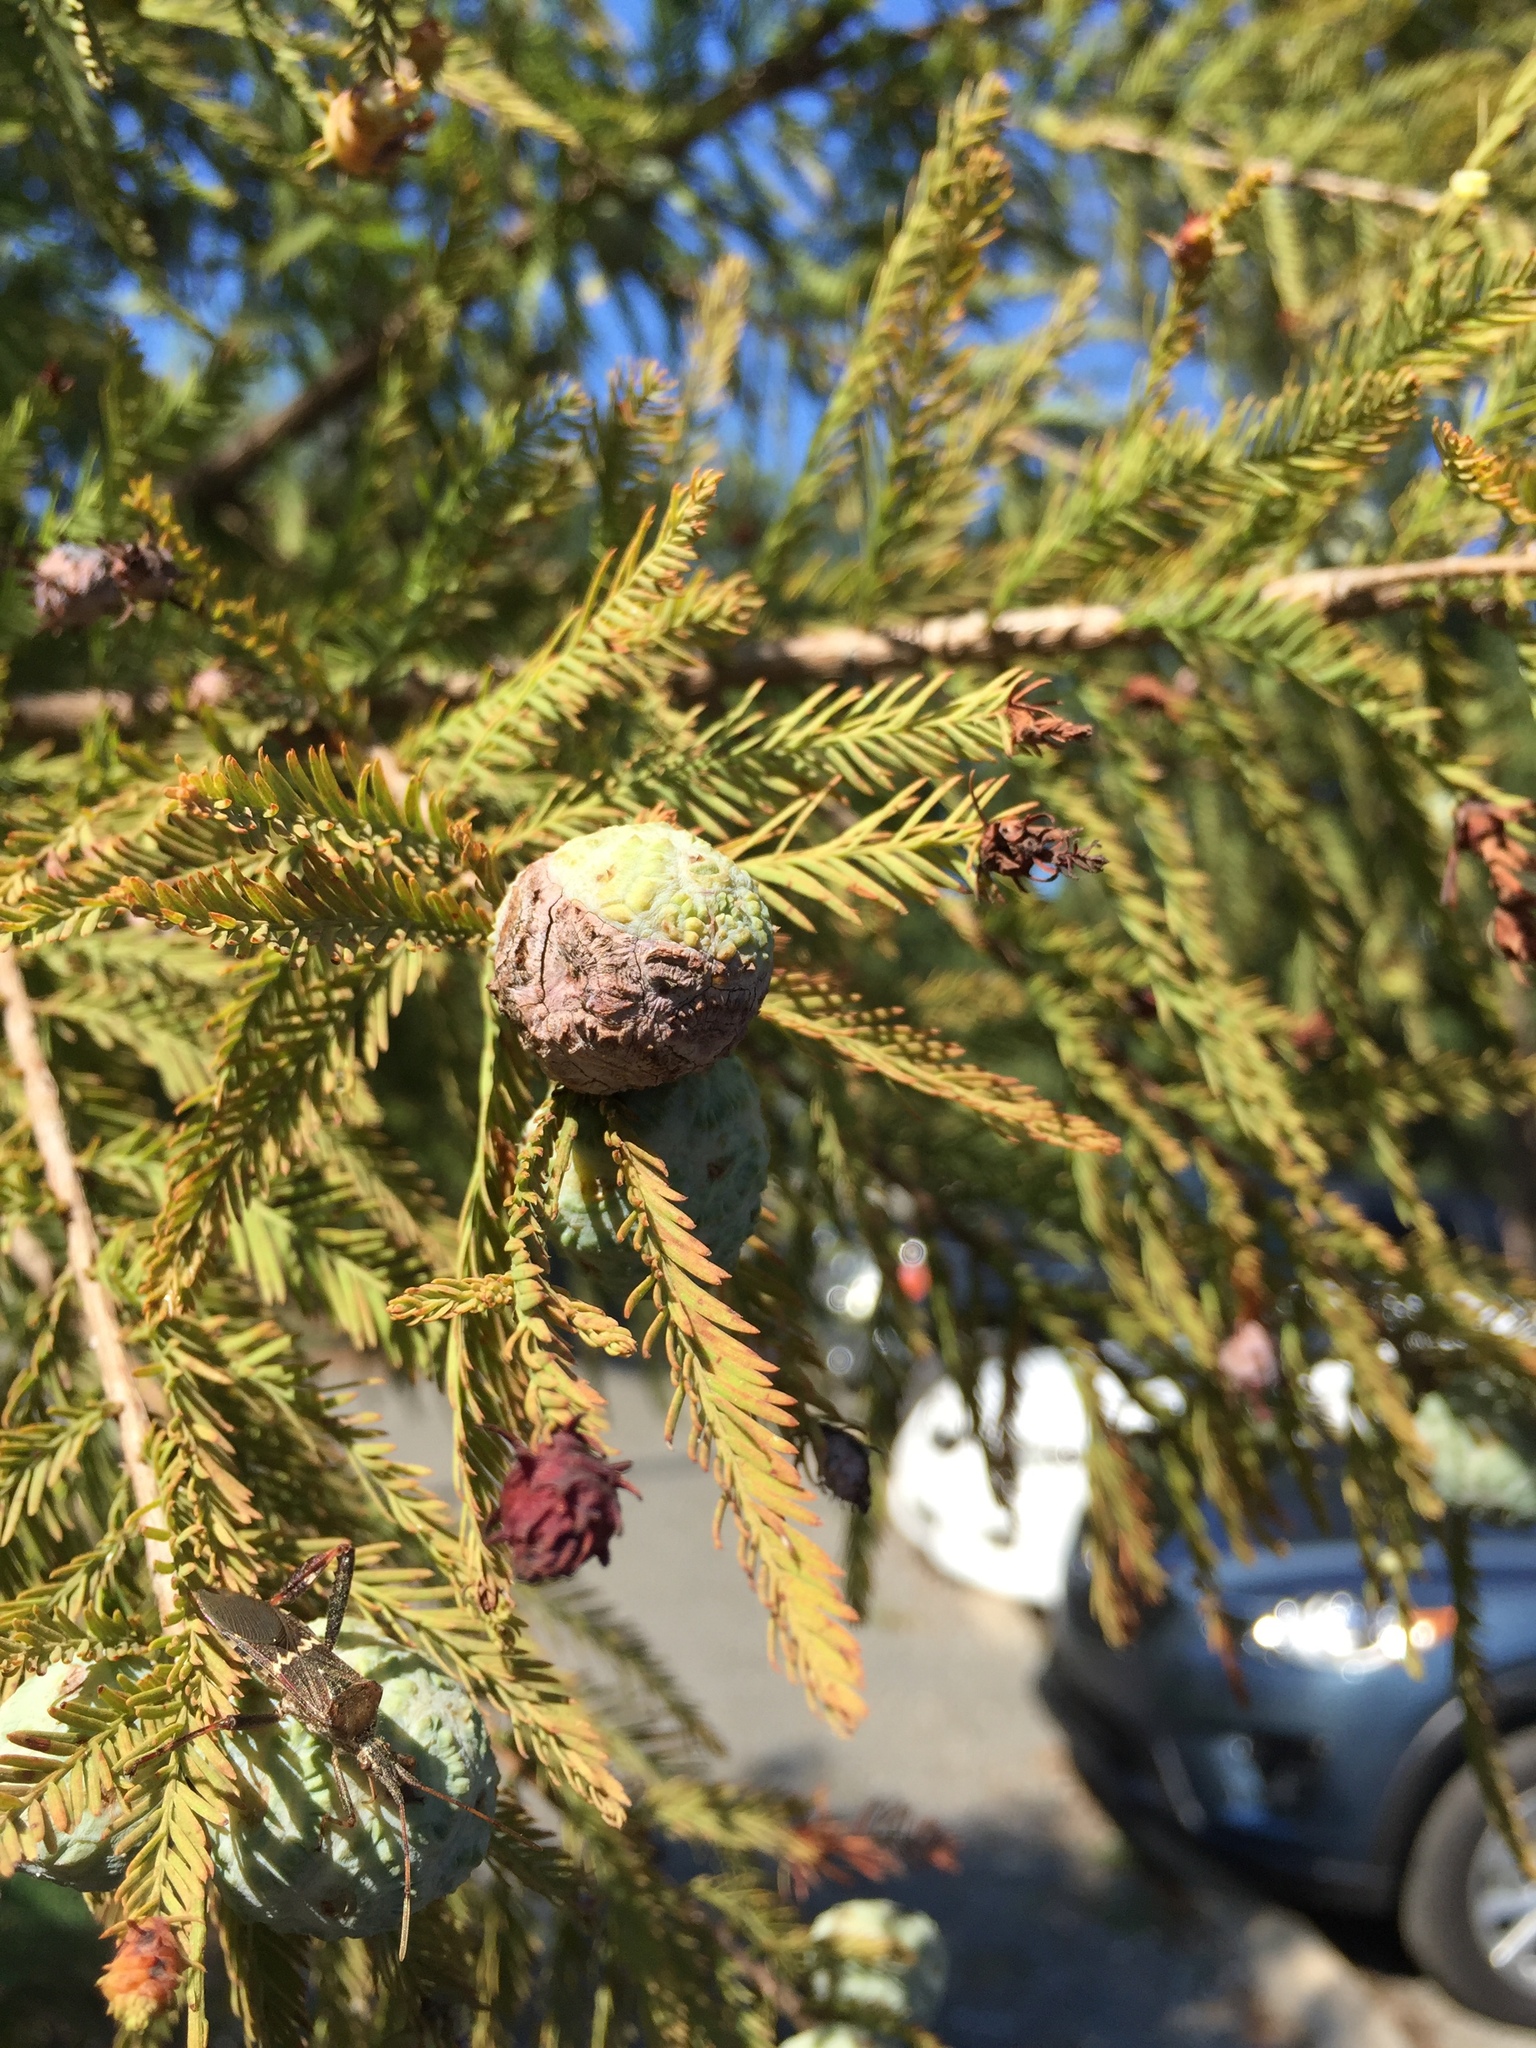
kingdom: Plantae
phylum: Tracheophyta
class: Pinopsida
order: Pinales
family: Cupressaceae
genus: Taxodium
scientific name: Taxodium distichum
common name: Bald cypress
